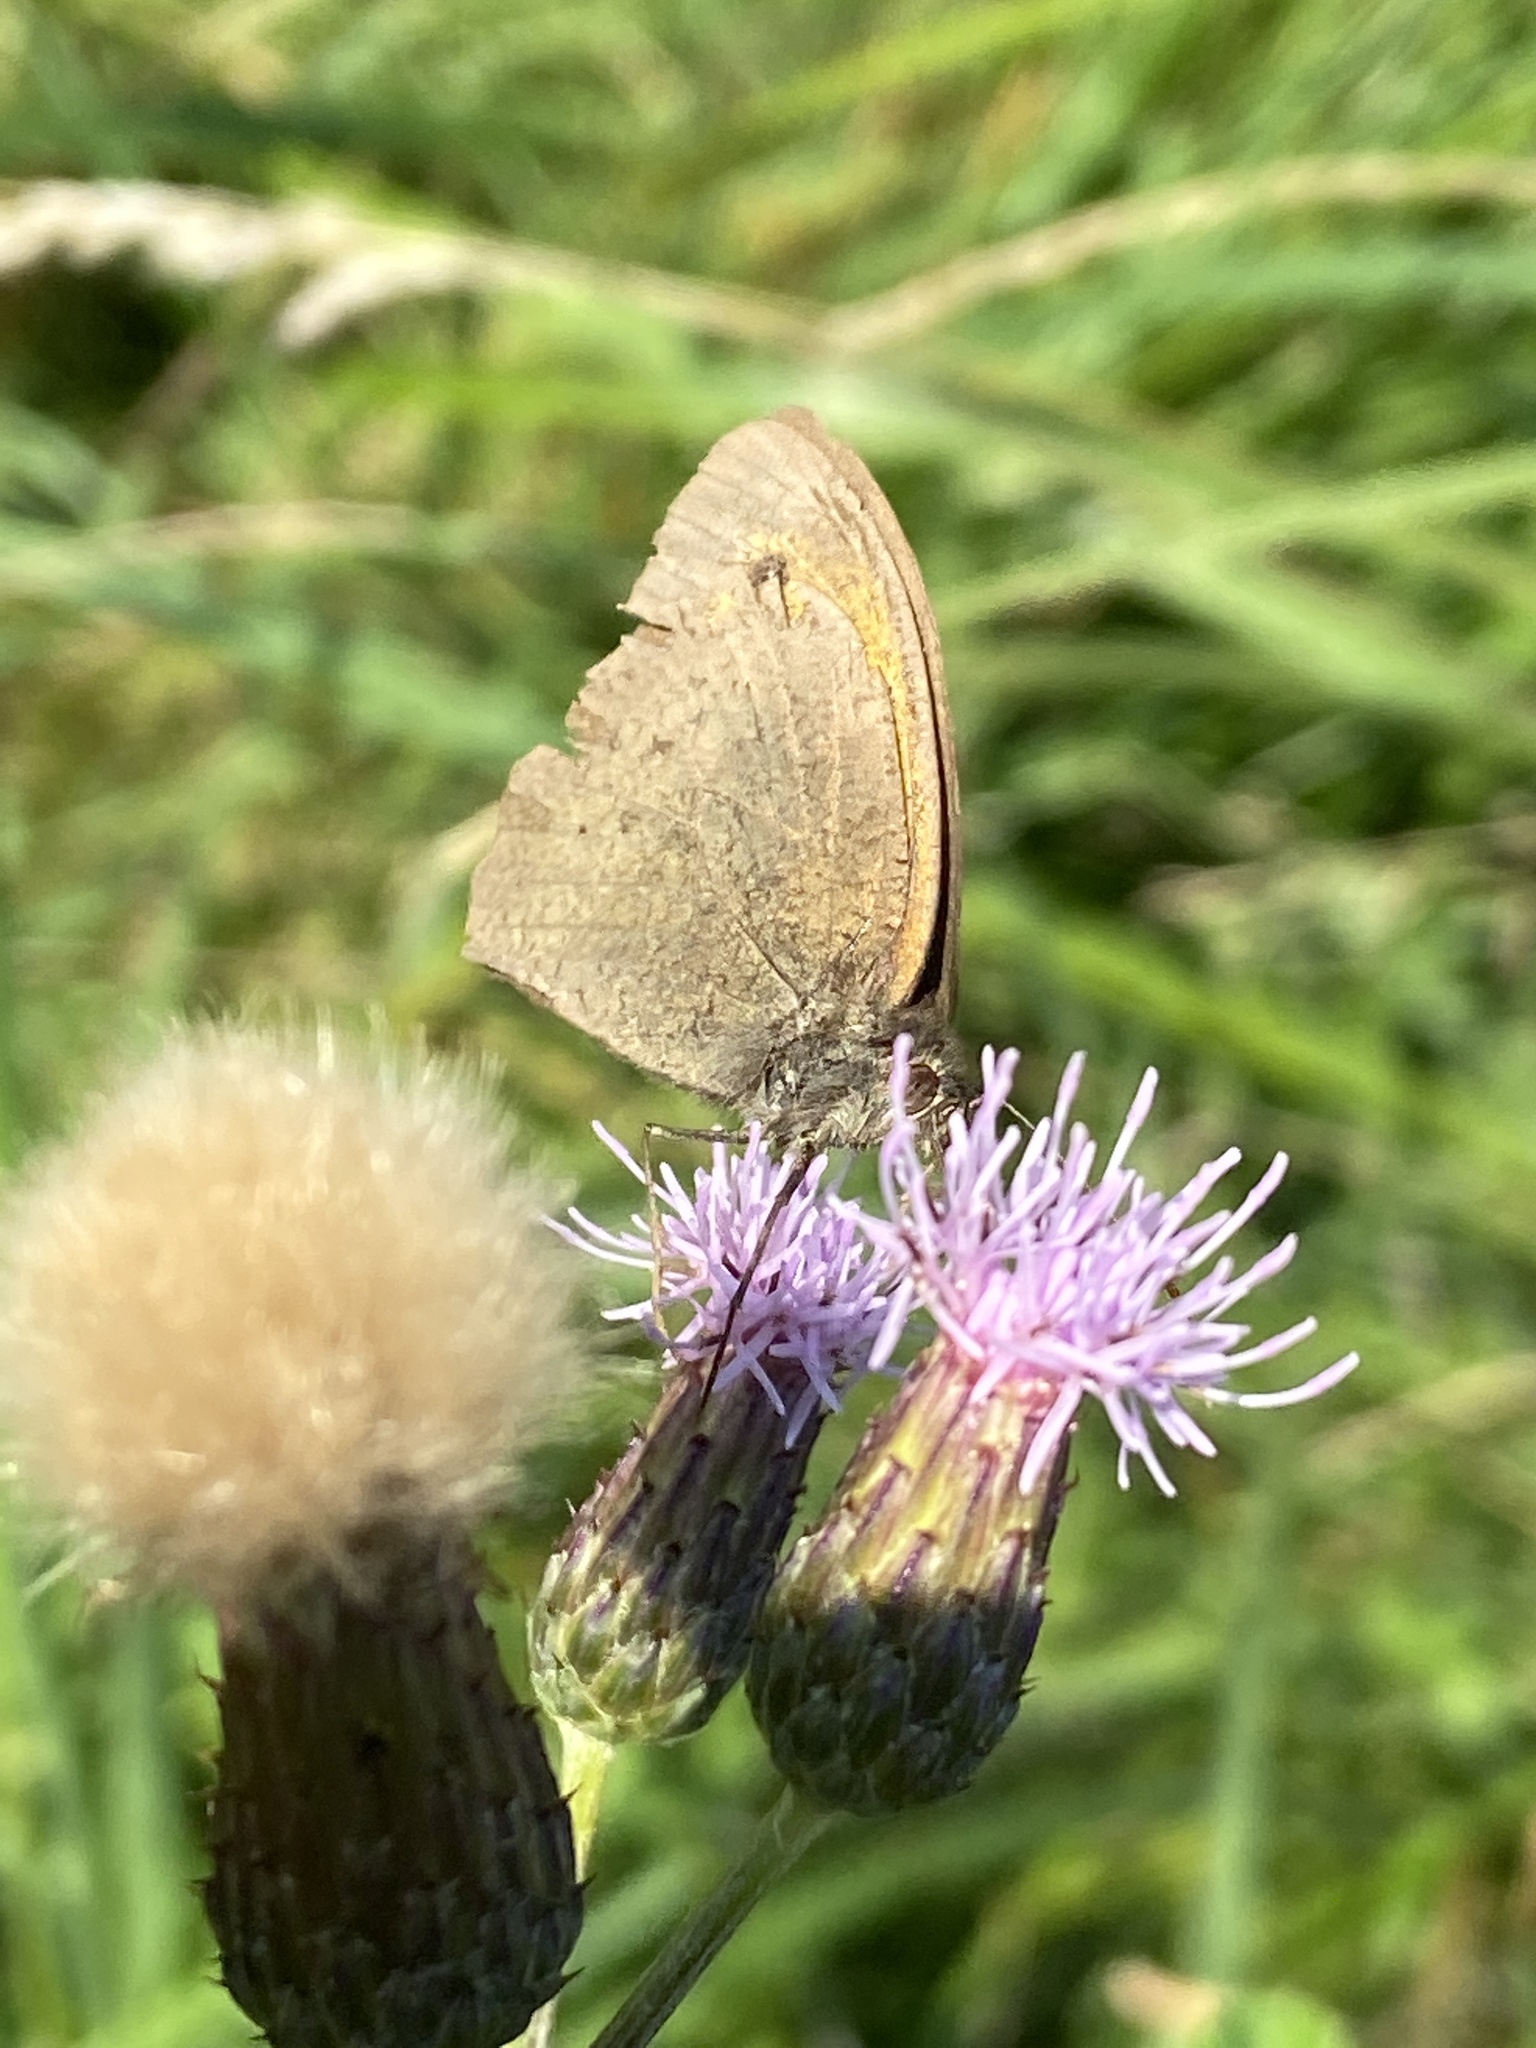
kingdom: Animalia
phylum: Arthropoda
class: Insecta
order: Lepidoptera
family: Nymphalidae
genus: Maniola
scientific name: Maniola jurtina
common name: Meadow brown
